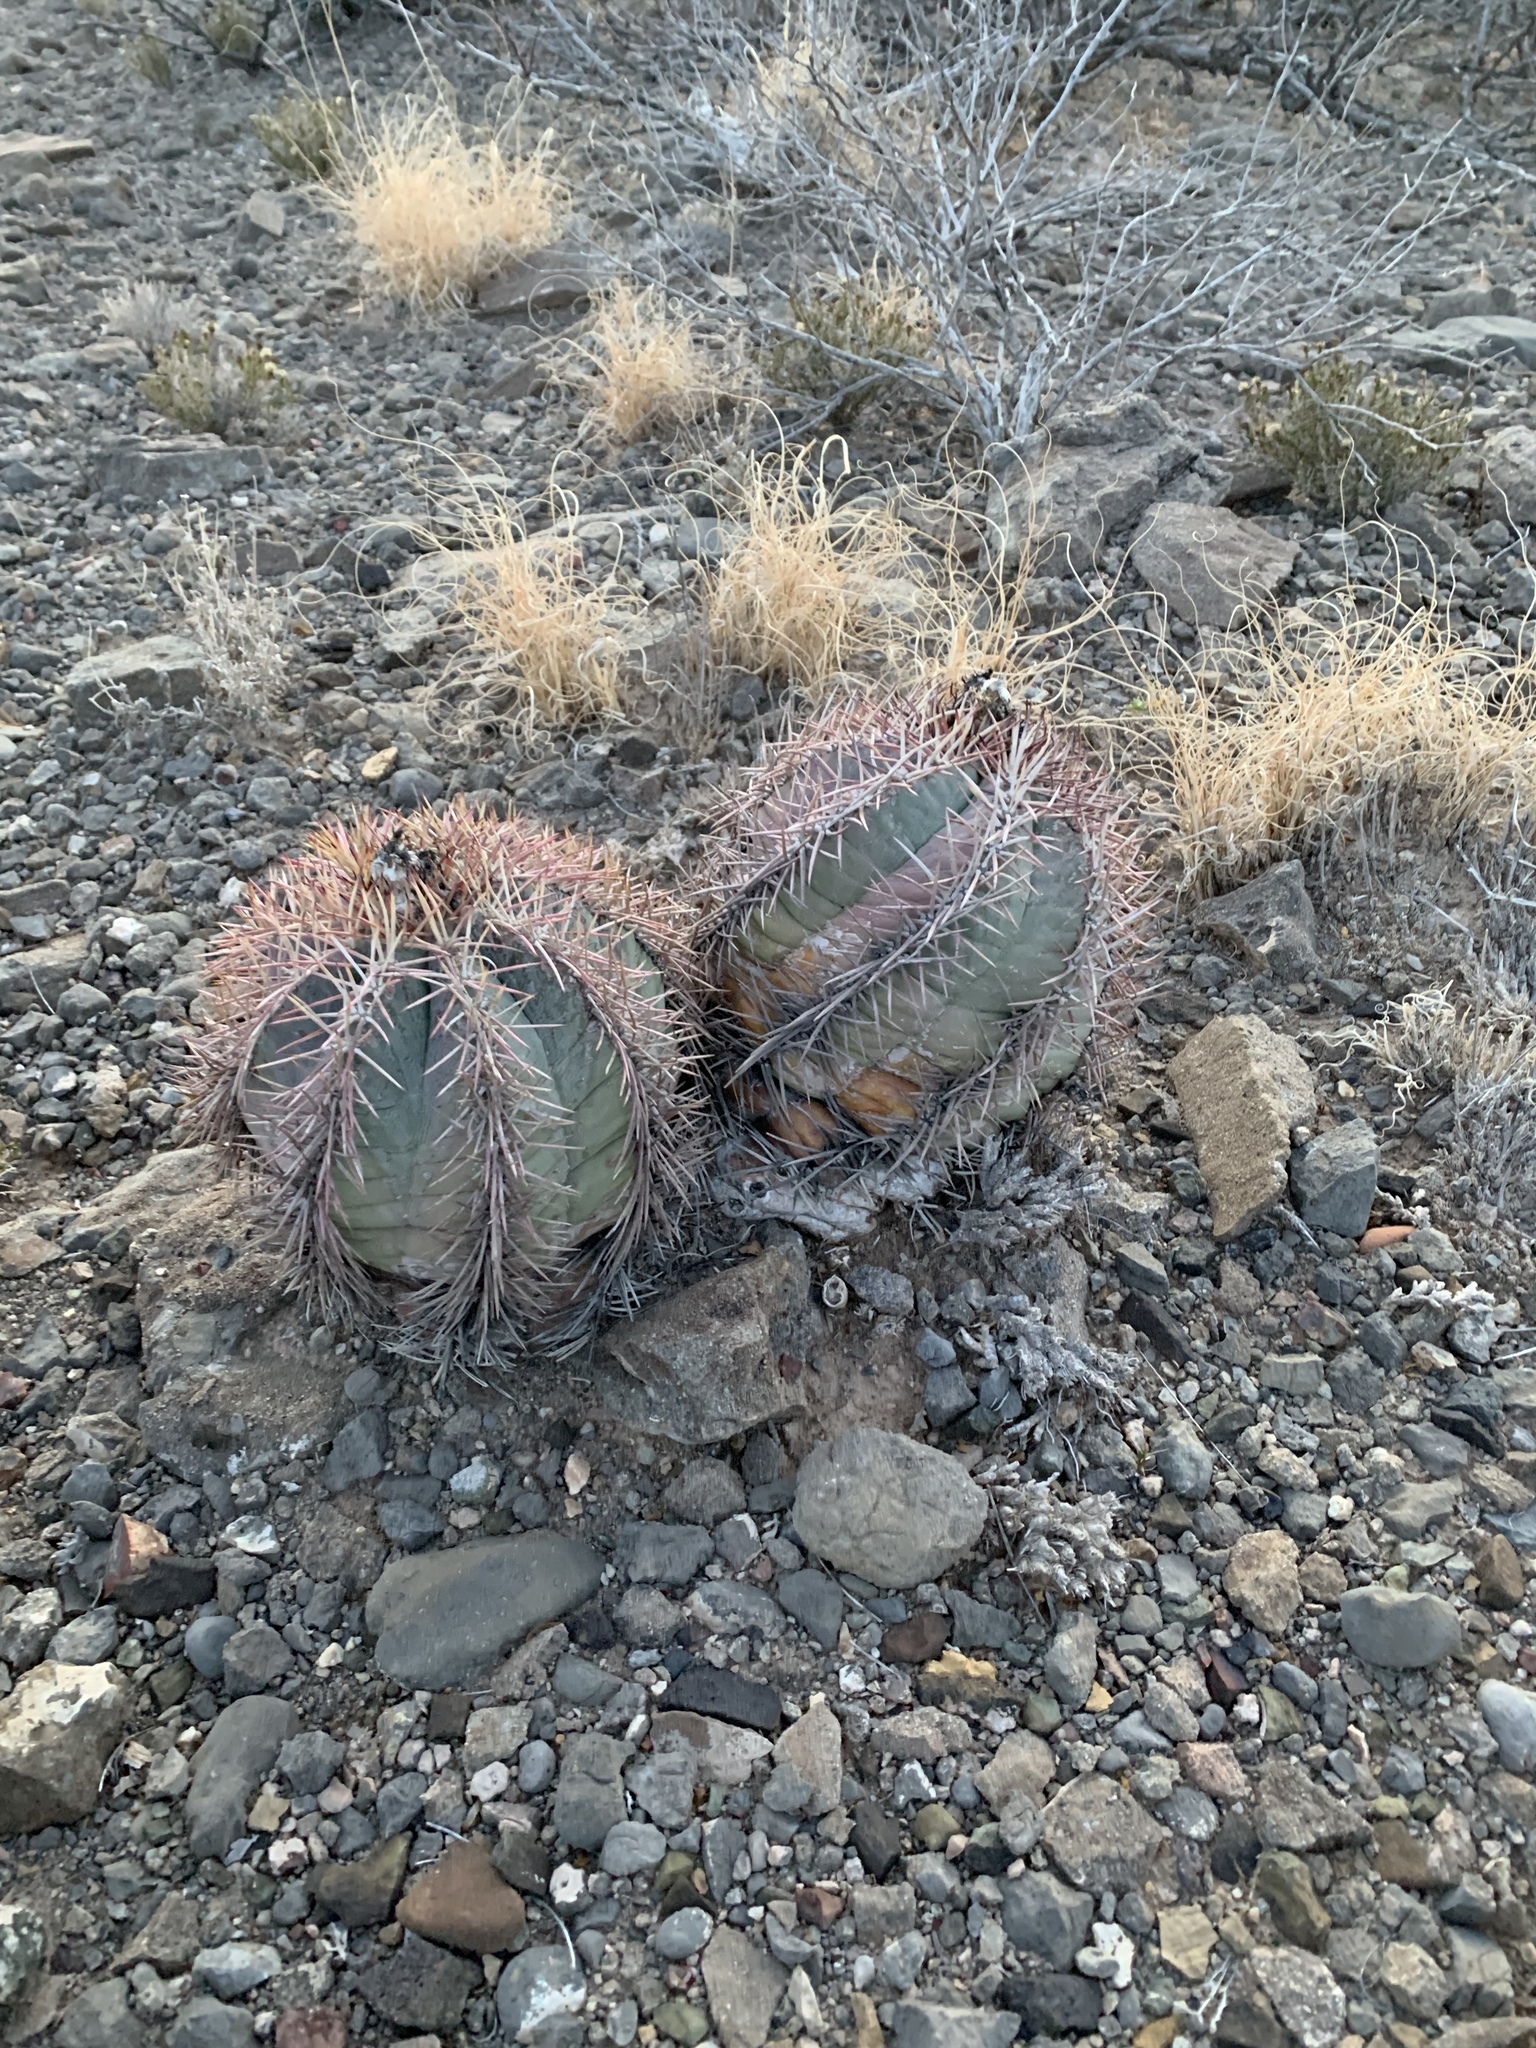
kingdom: Plantae
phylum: Tracheophyta
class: Magnoliopsida
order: Caryophyllales
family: Cactaceae
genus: Echinocactus
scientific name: Echinocactus horizonthalonius
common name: Devilshead
